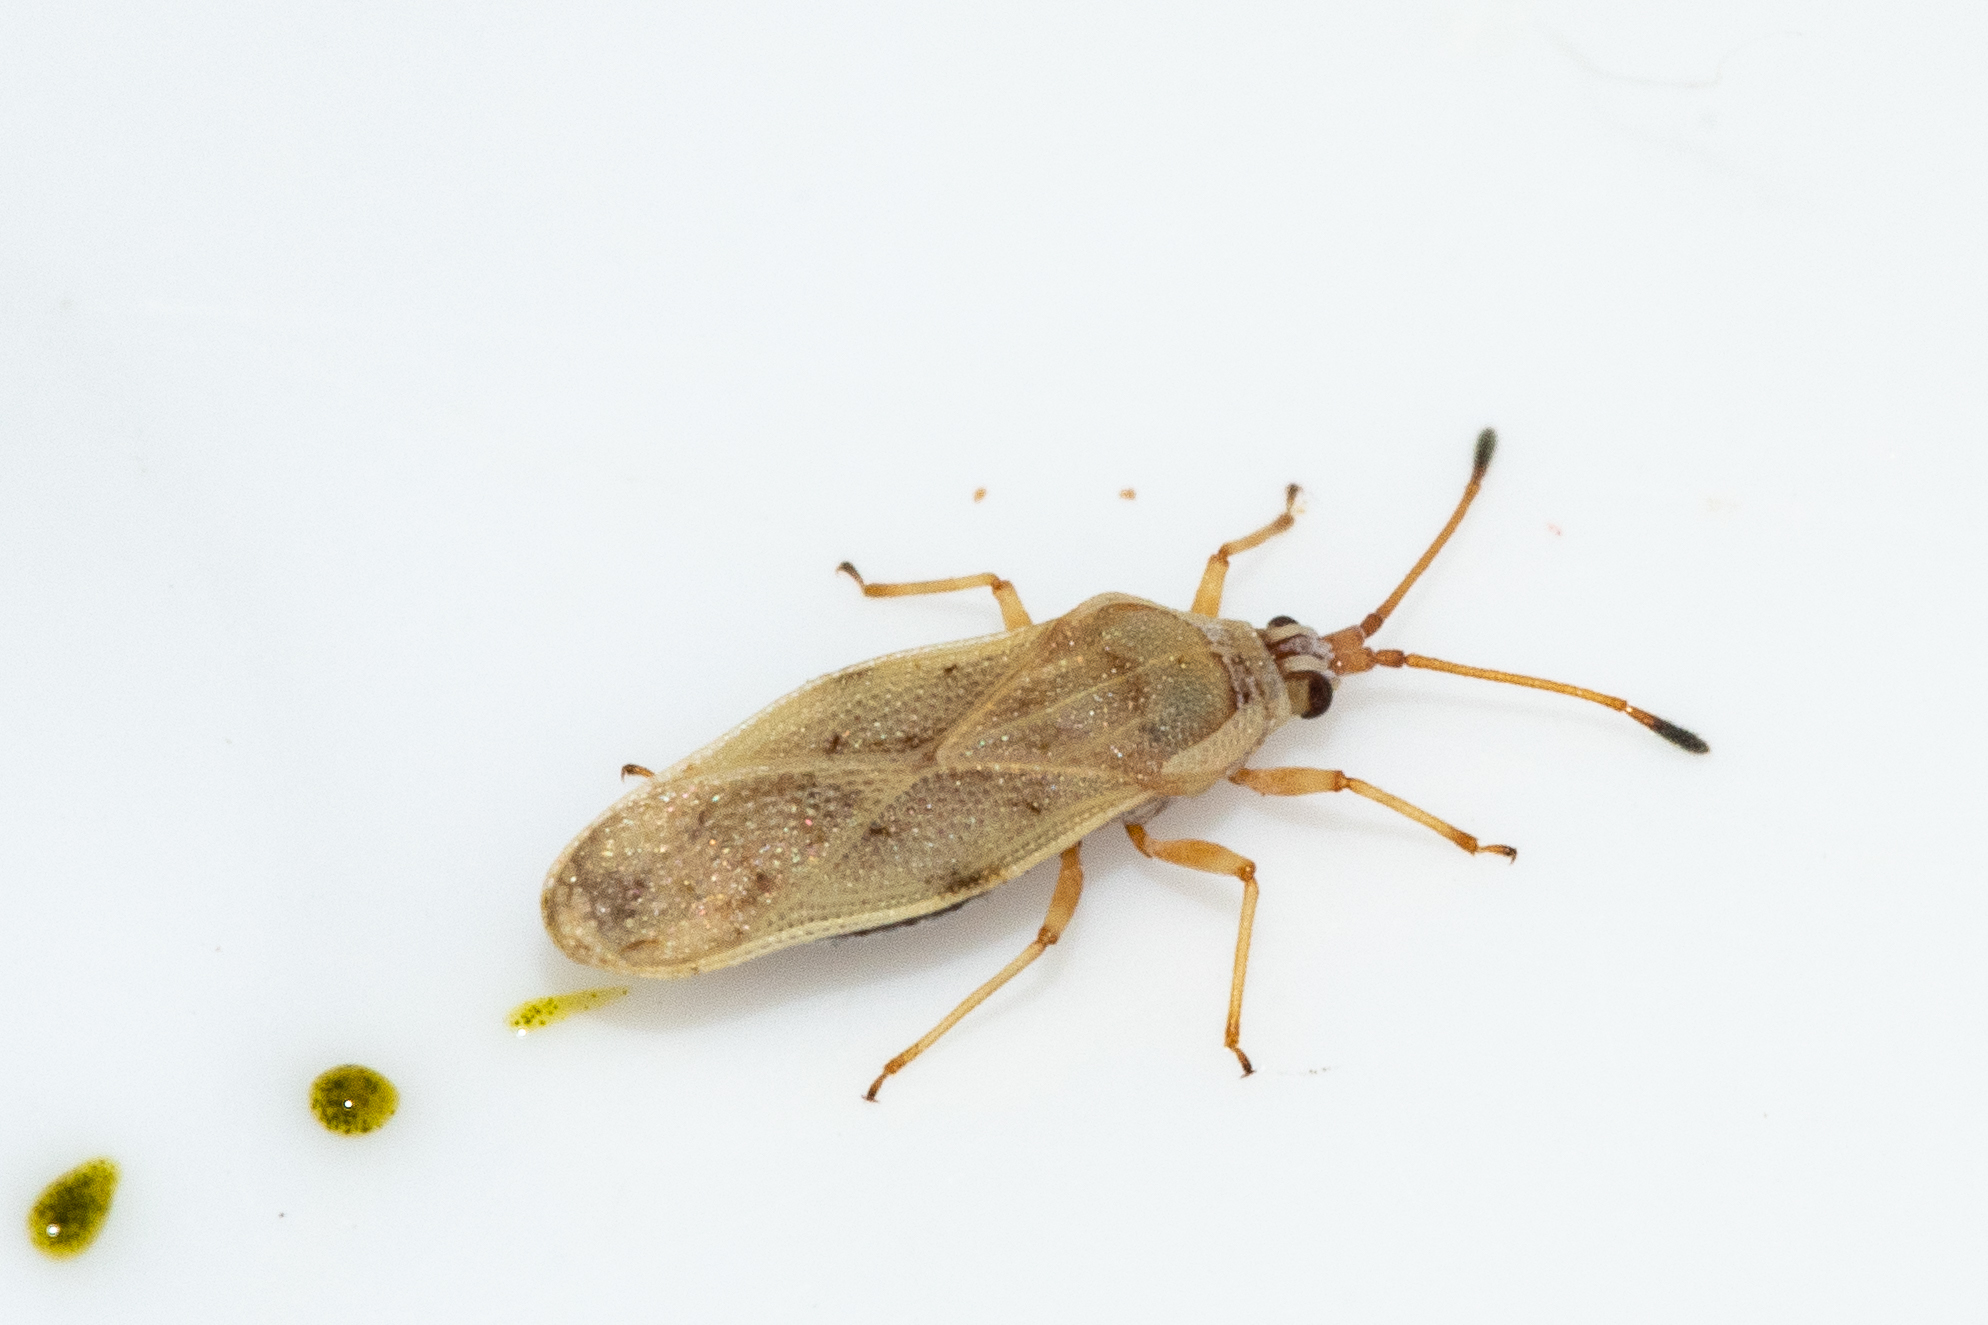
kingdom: Animalia
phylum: Arthropoda
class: Insecta
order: Hemiptera
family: Tingidae
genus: Plerochila
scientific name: Plerochila australis
